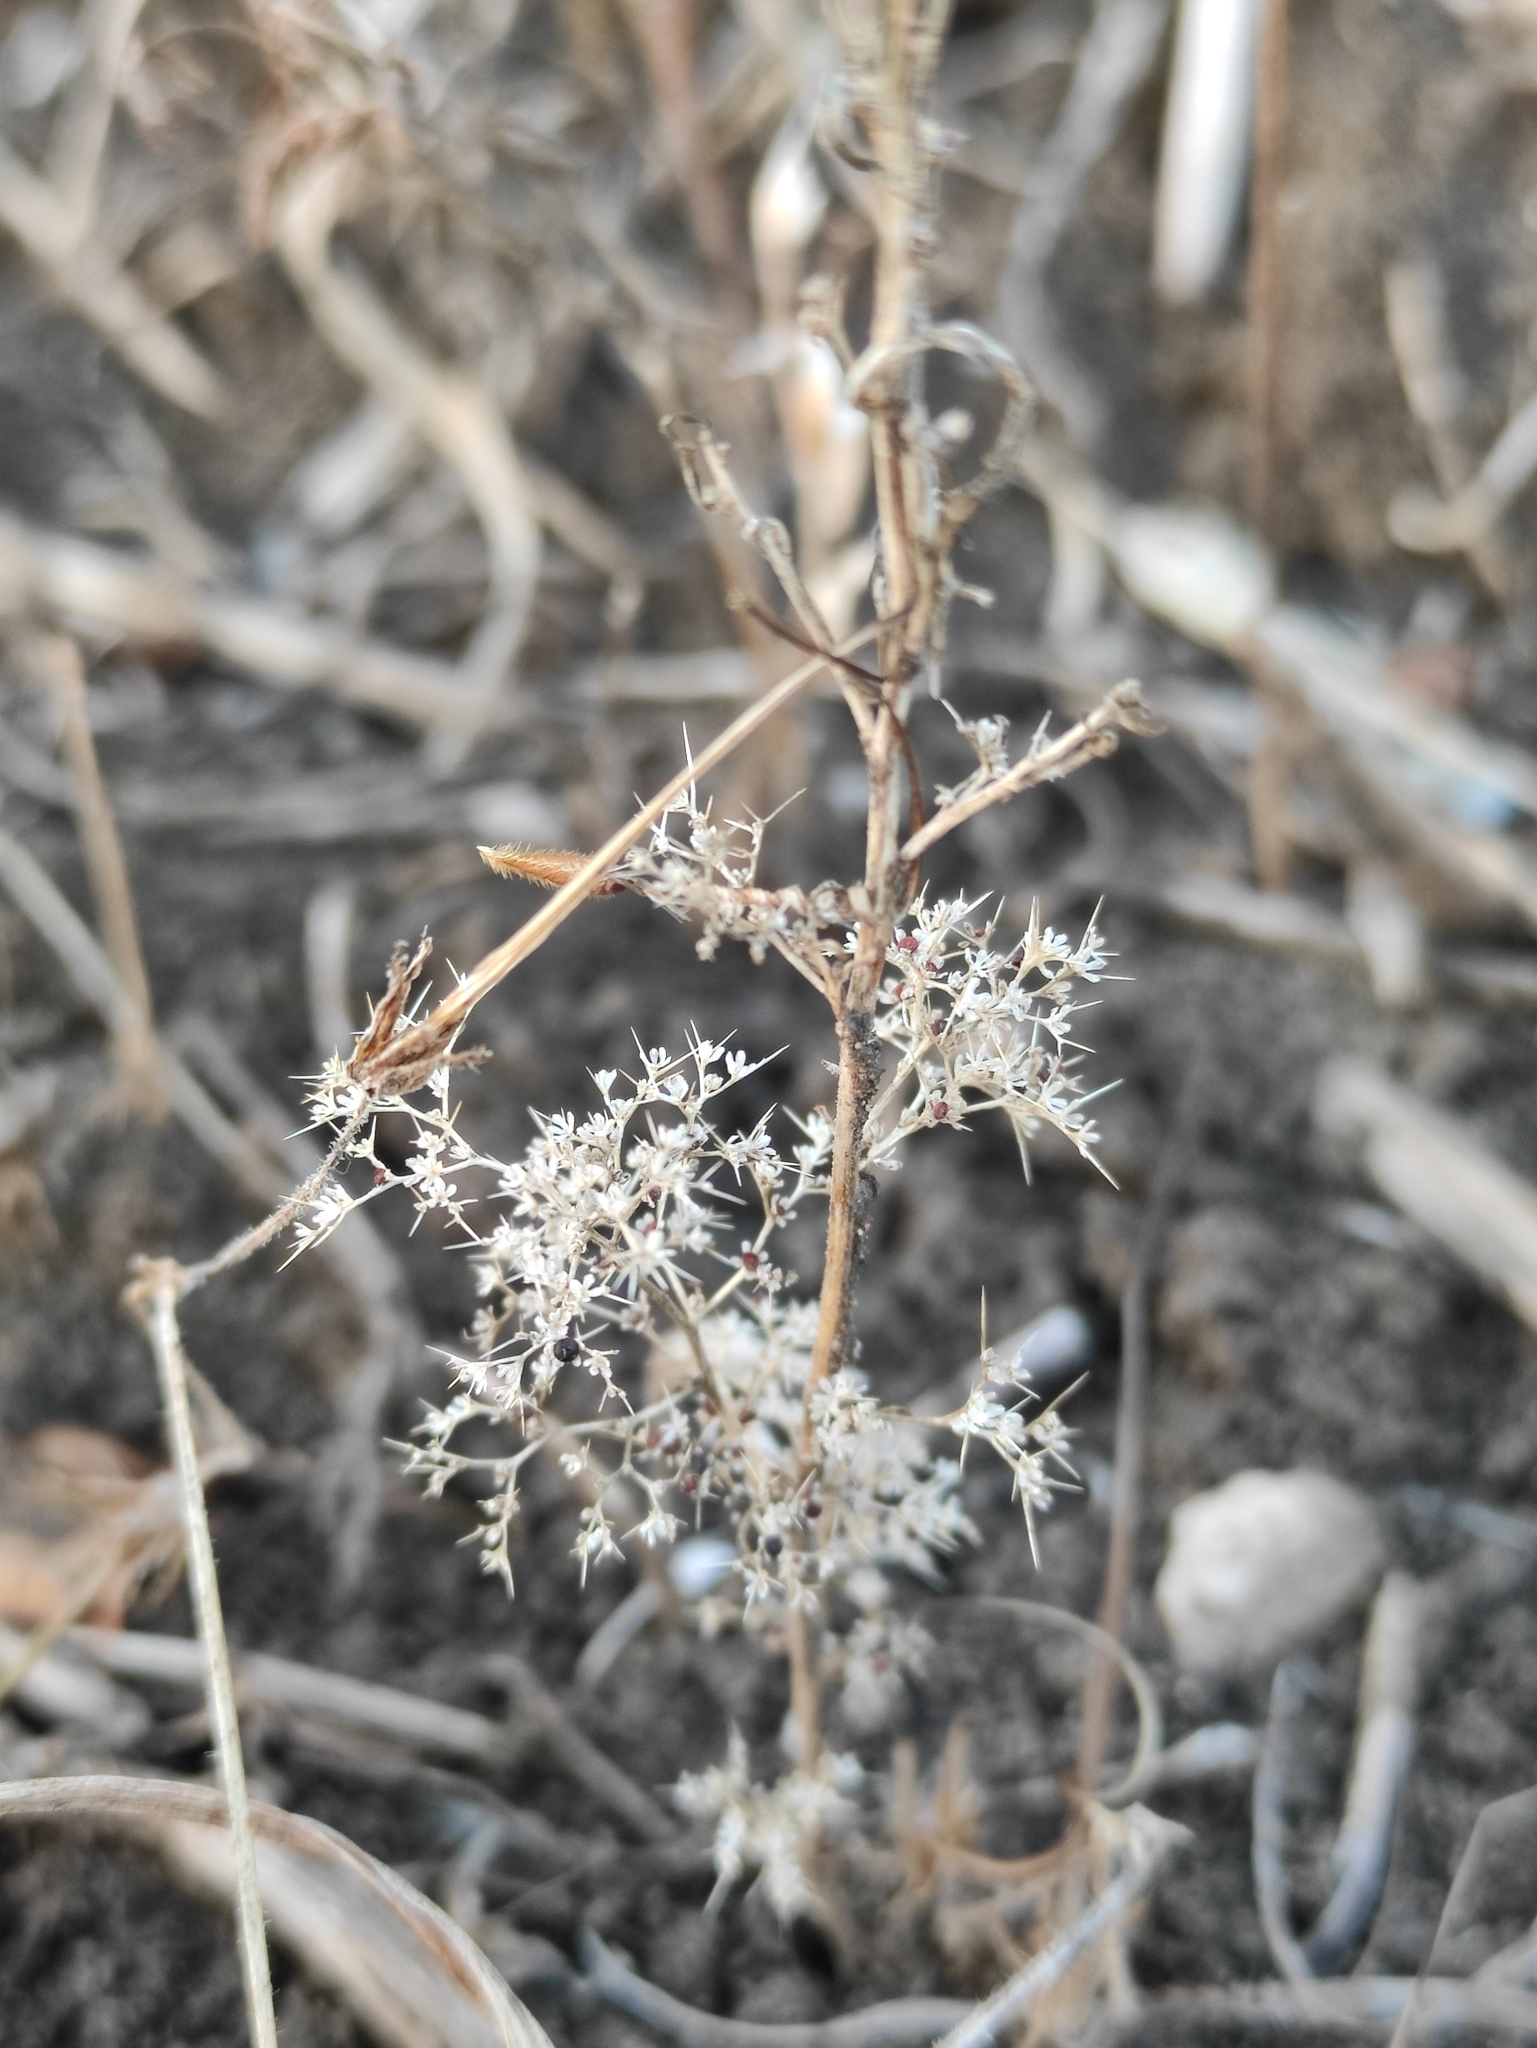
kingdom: Plantae
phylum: Tracheophyta
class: Magnoliopsida
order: Caryophyllales
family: Amaranthaceae
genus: Teloxys
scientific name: Teloxys aristata
